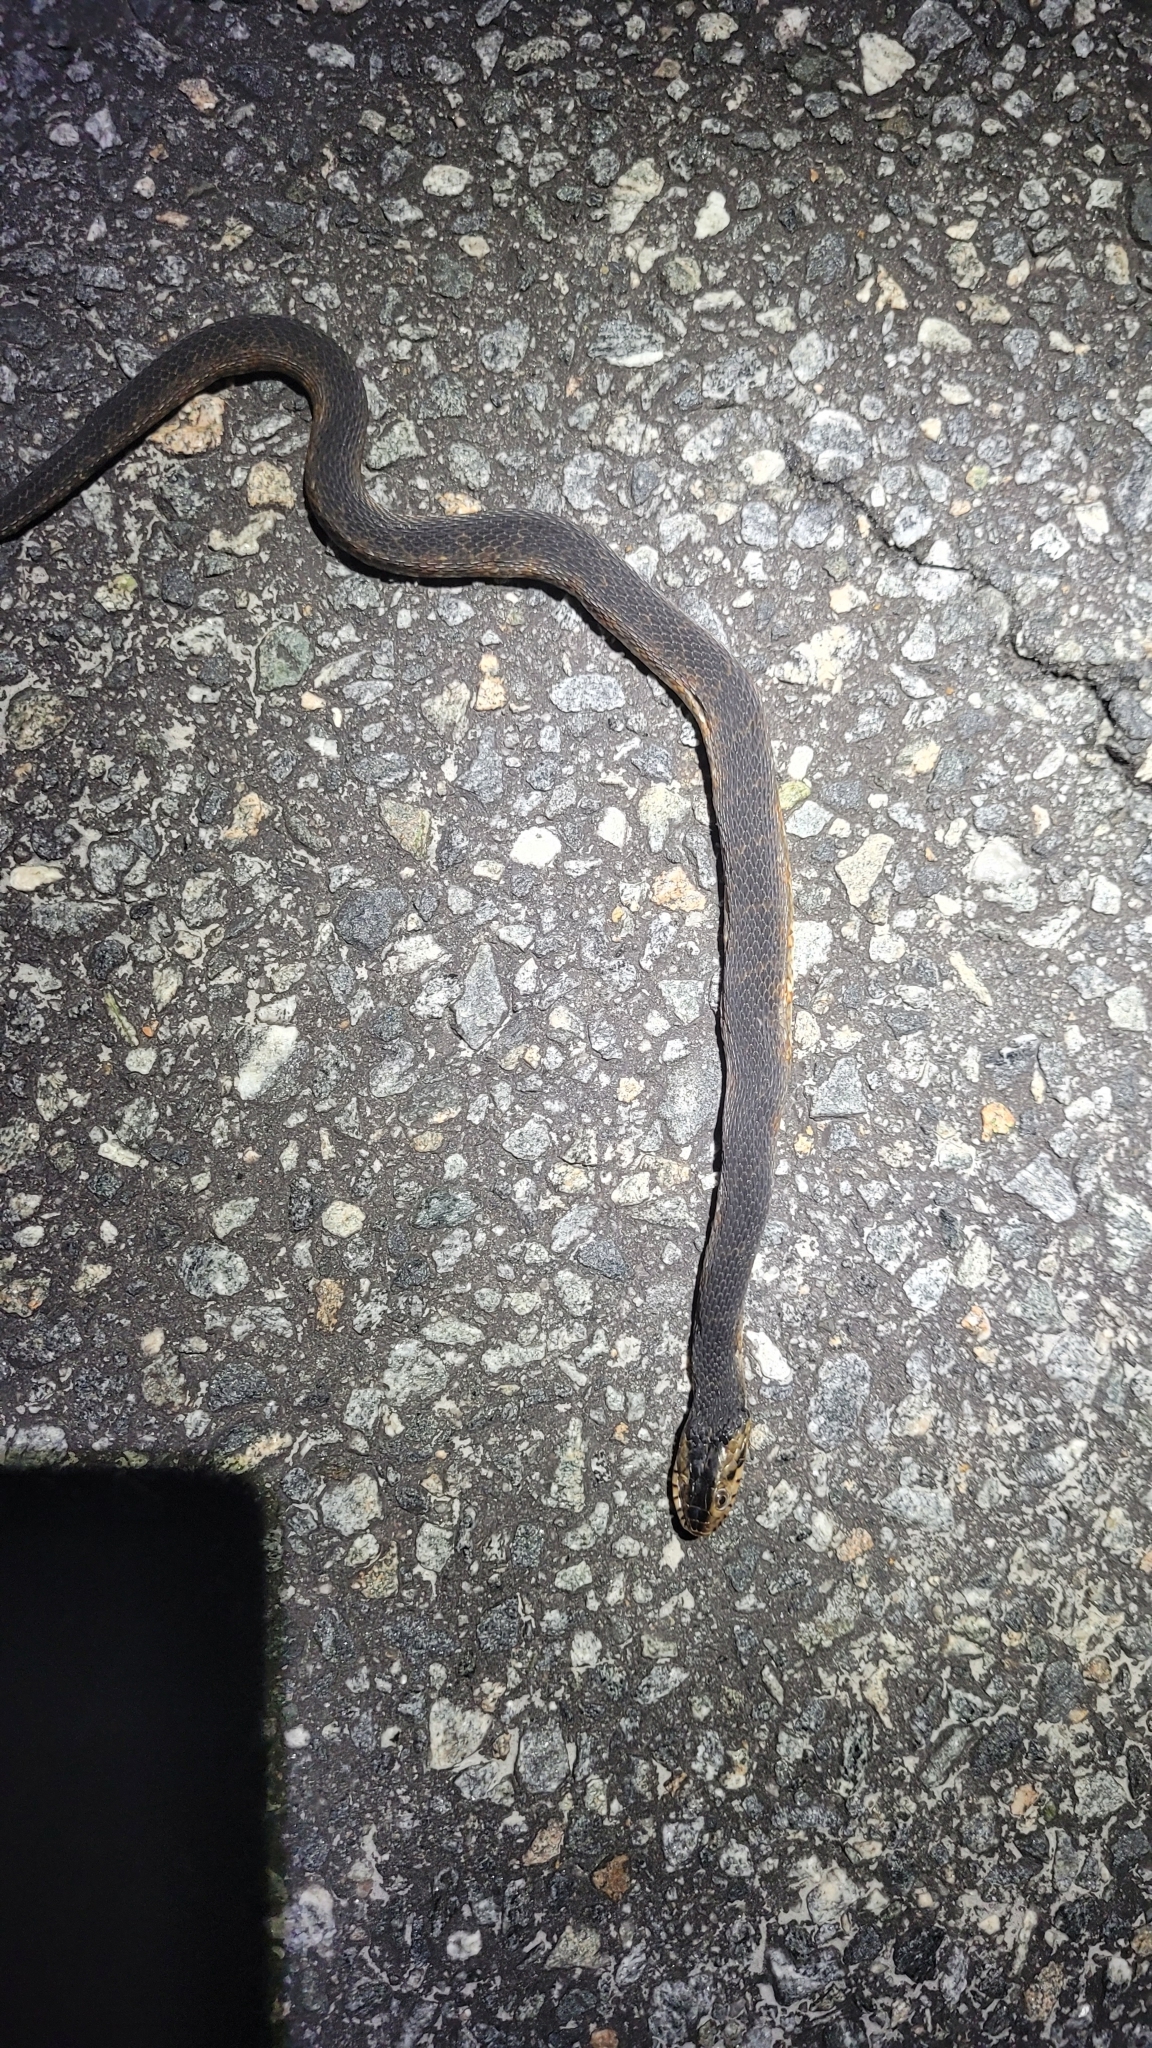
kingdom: Animalia
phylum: Chordata
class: Squamata
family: Colubridae
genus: Nerodia
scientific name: Nerodia fasciata
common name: Southern water snake
